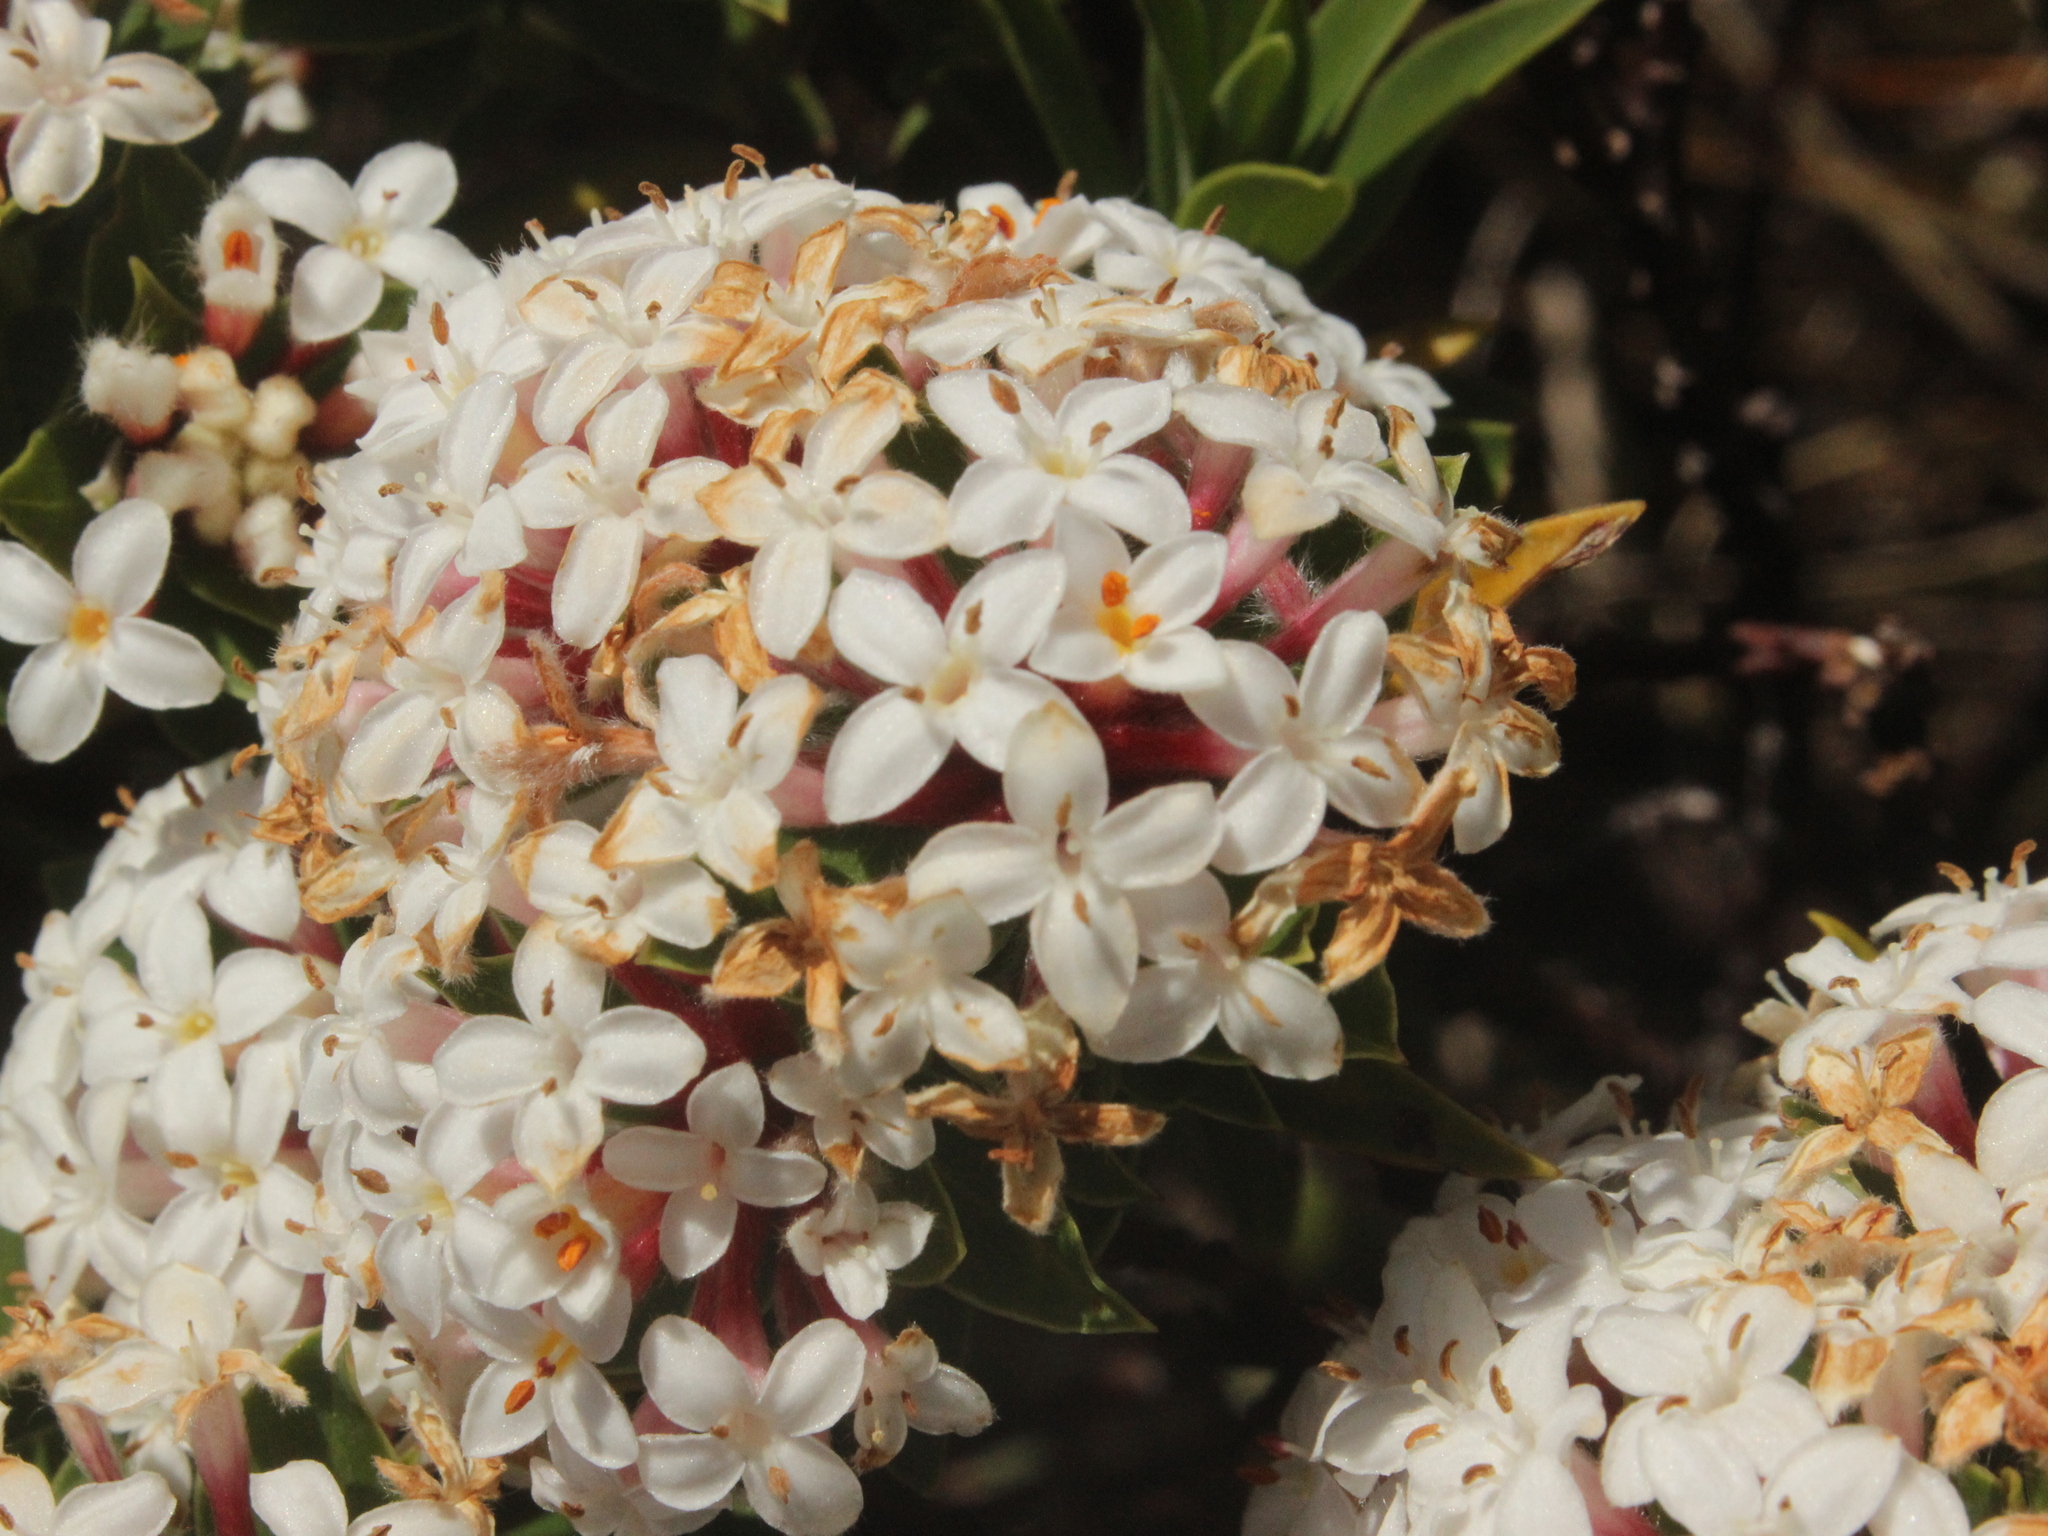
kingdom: Plantae
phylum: Tracheophyta
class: Magnoliopsida
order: Malvales
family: Thymelaeaceae
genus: Pimelea
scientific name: Pimelea gnidia
